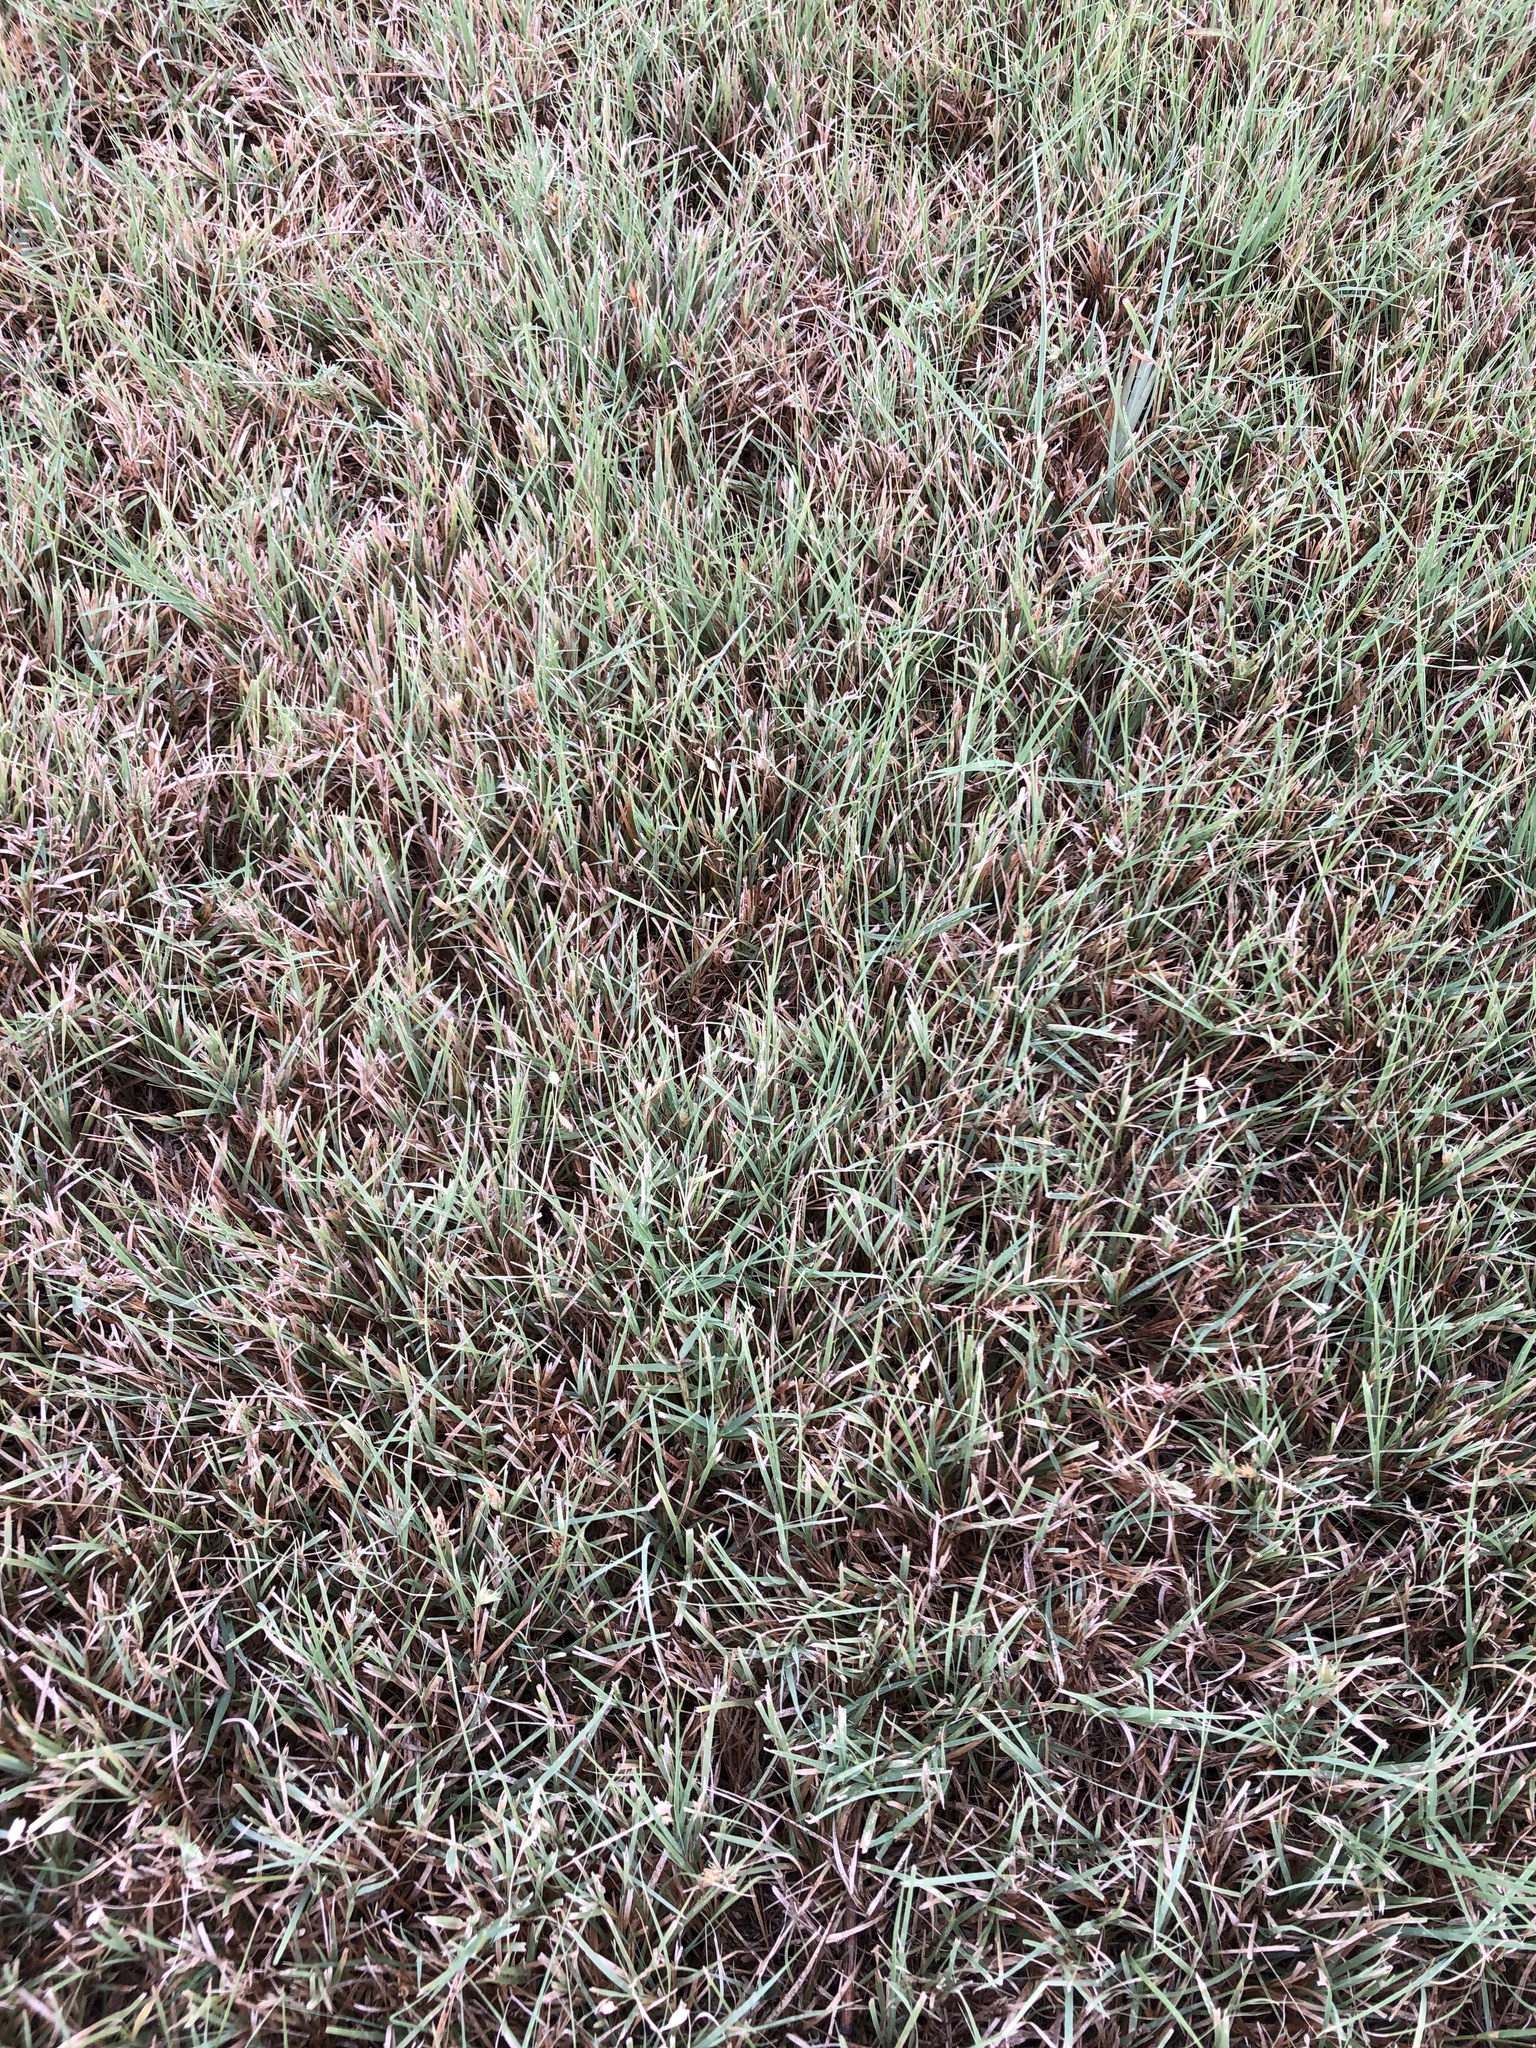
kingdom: Plantae
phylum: Tracheophyta
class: Liliopsida
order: Poales
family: Poaceae
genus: Bouteloua
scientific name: Bouteloua dactyloides
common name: Buffalo grass
